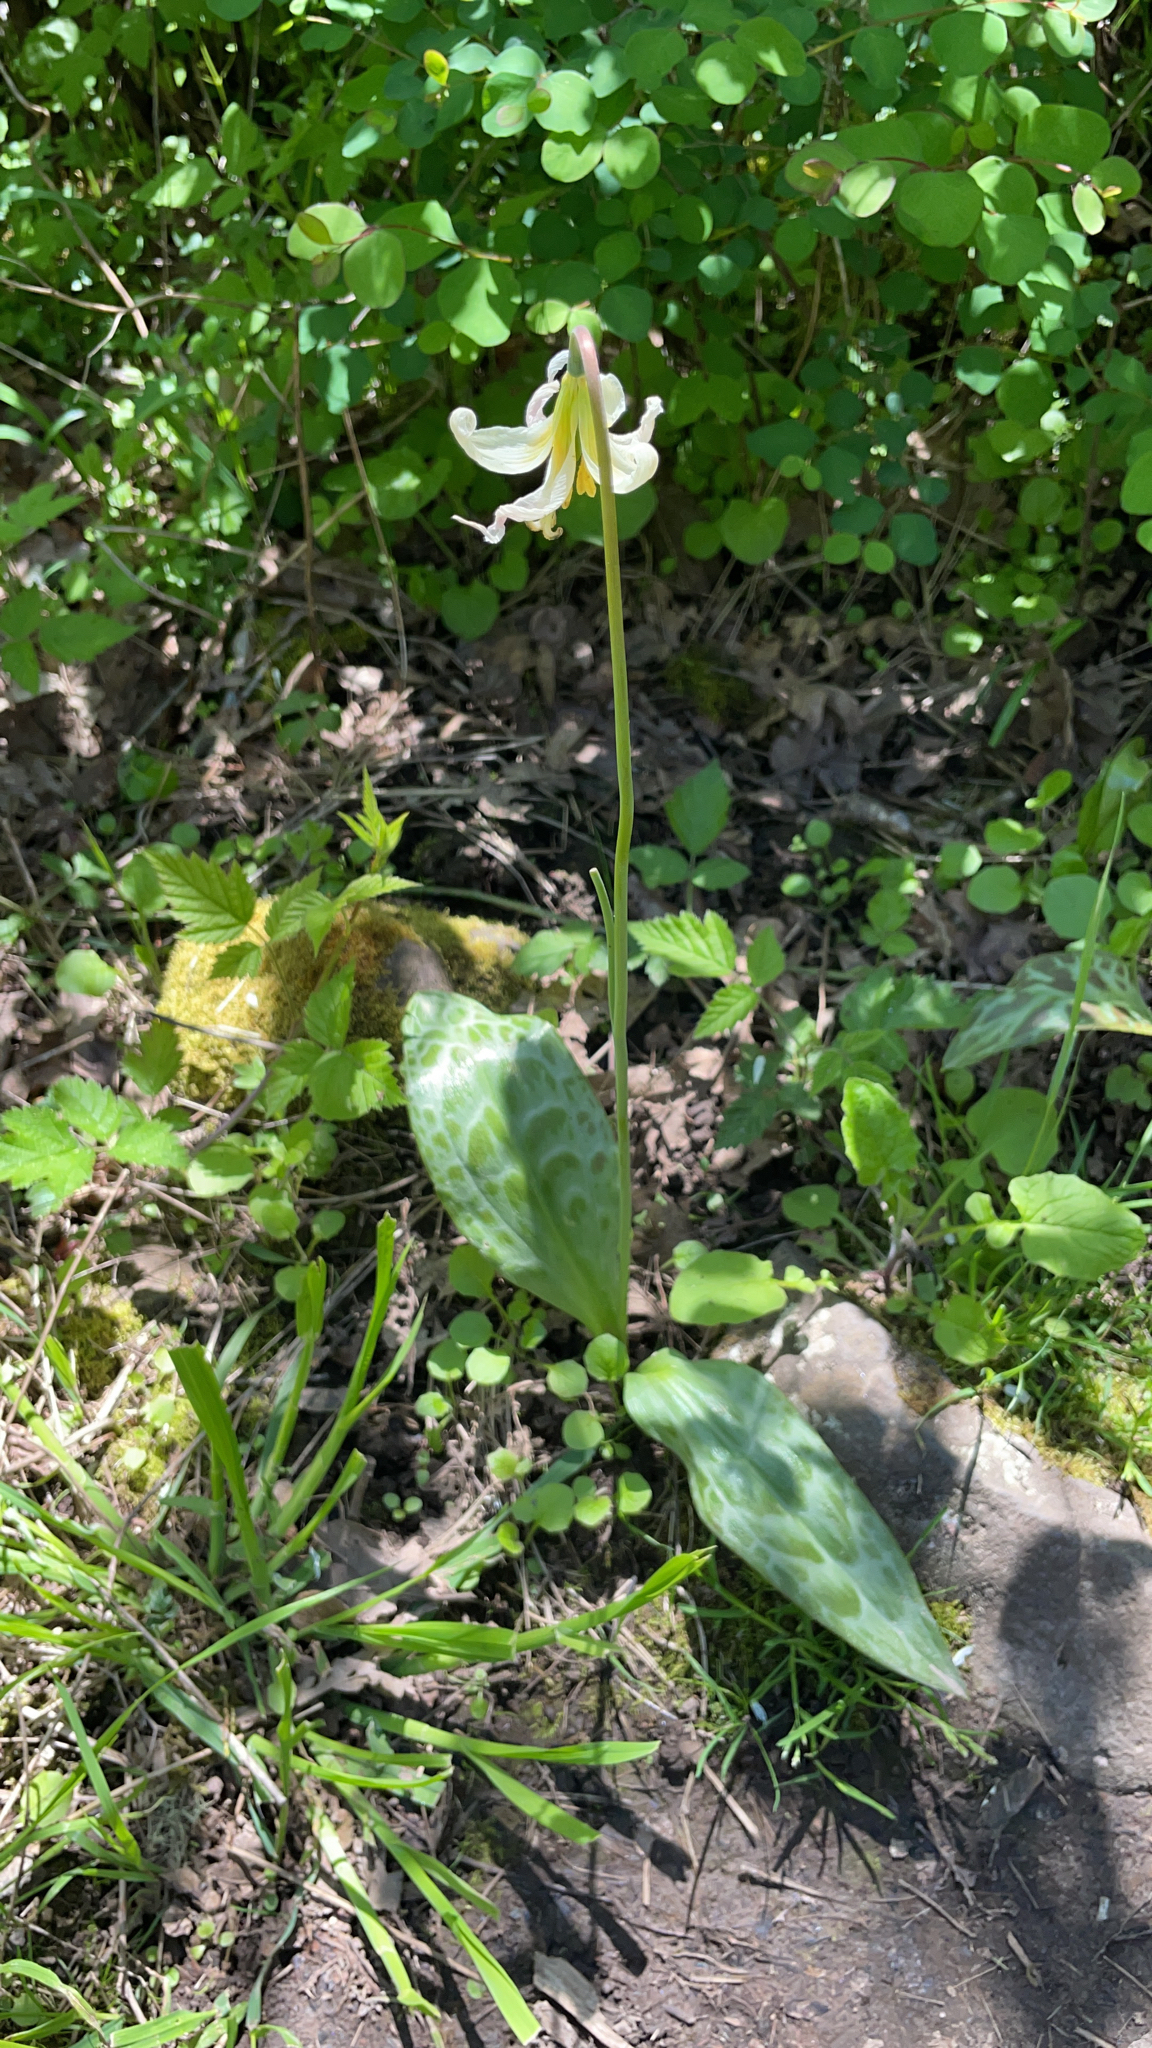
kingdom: Plantae
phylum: Tracheophyta
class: Liliopsida
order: Liliales
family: Liliaceae
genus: Erythronium
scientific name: Erythronium oregonum
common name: Giant adder's-tongue
